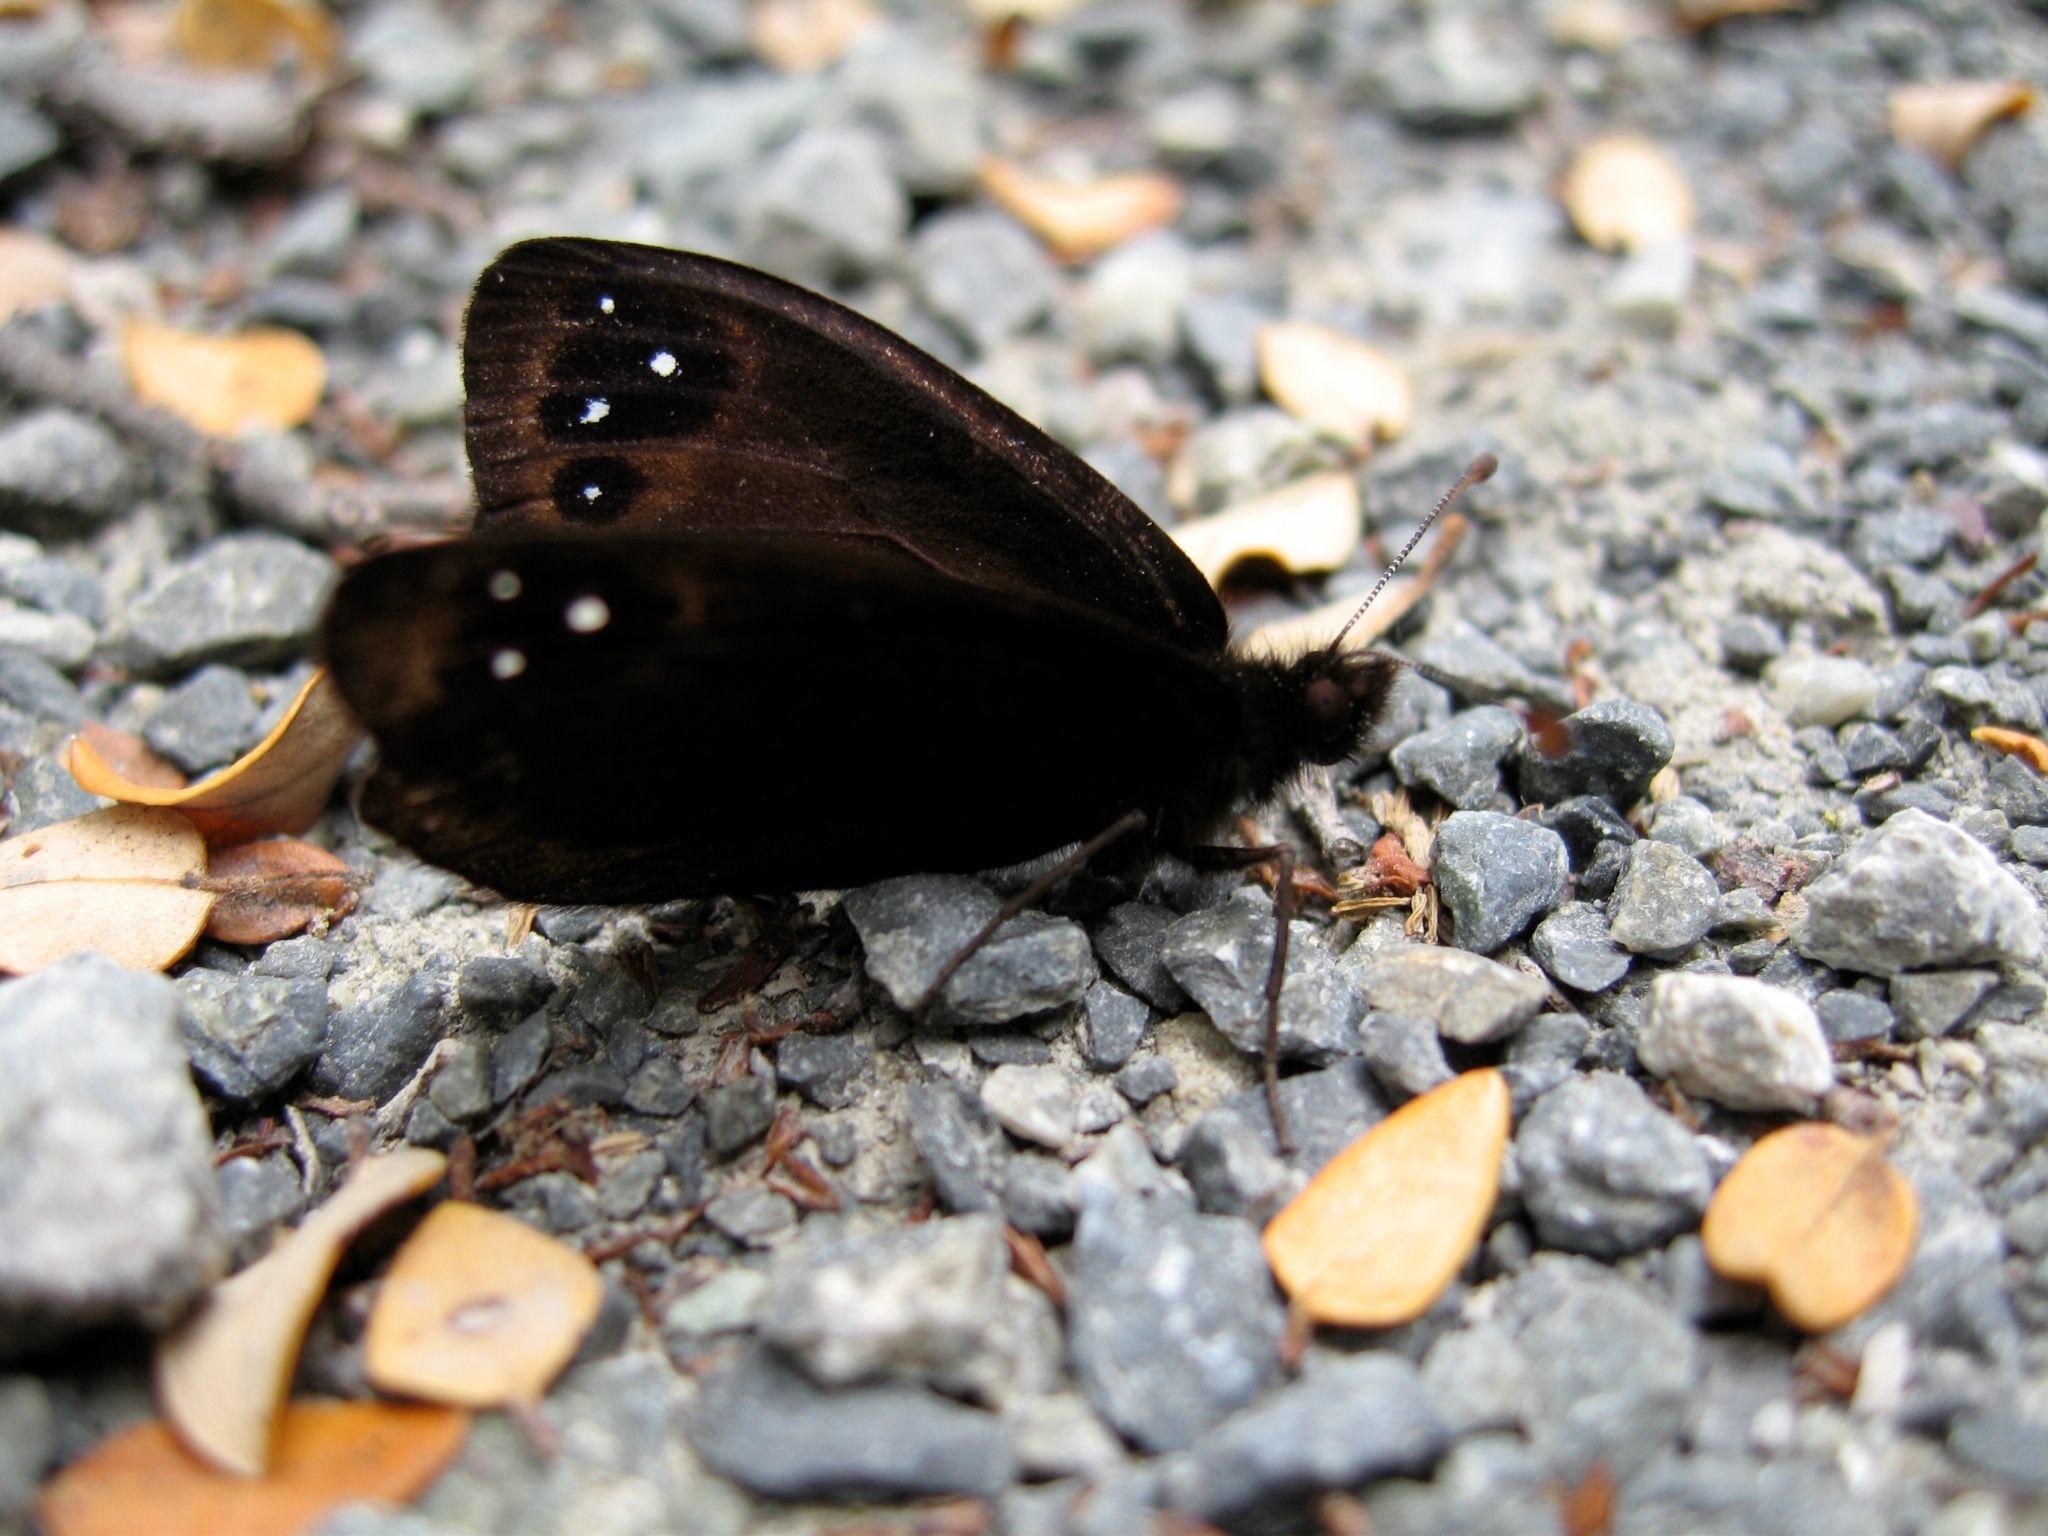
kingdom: Animalia
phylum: Arthropoda
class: Insecta
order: Lepidoptera
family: Nymphalidae
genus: Erebia
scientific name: Erebia Percnodaimon merula
